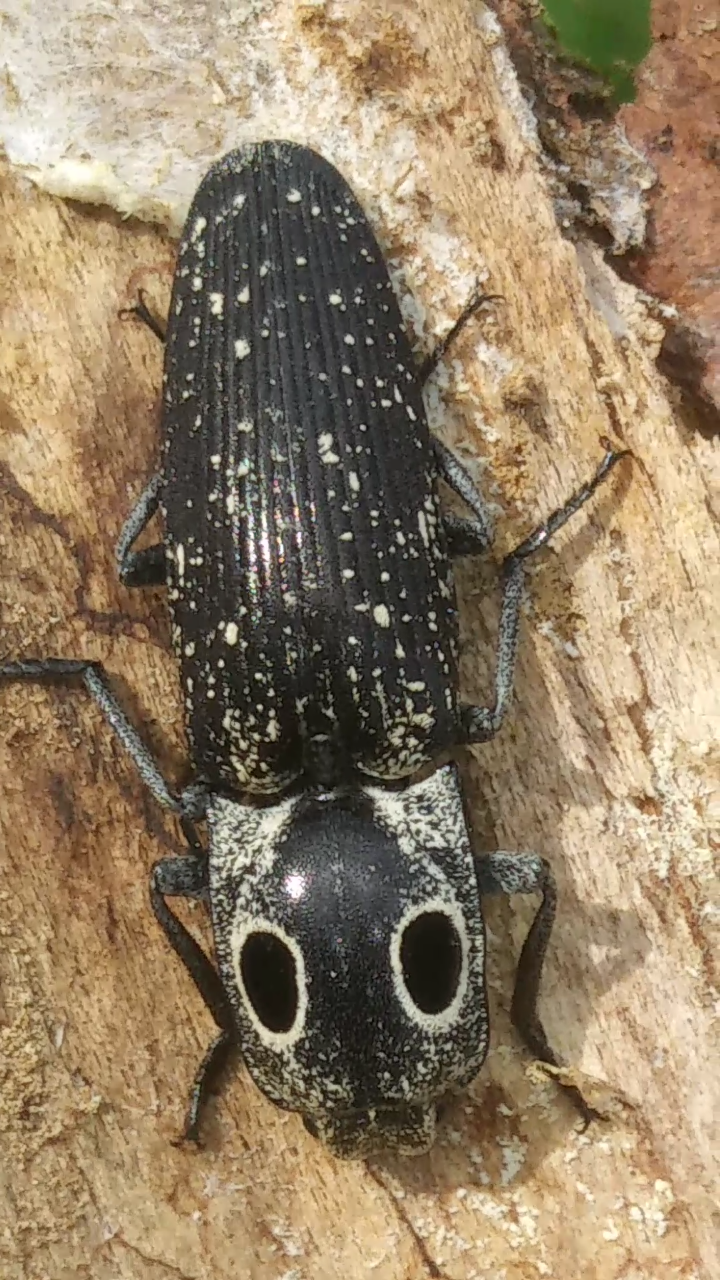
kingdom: Animalia
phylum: Arthropoda
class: Insecta
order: Coleoptera
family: Elateridae
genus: Alaus
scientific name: Alaus oculatus
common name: Eastern eyed click beetle
